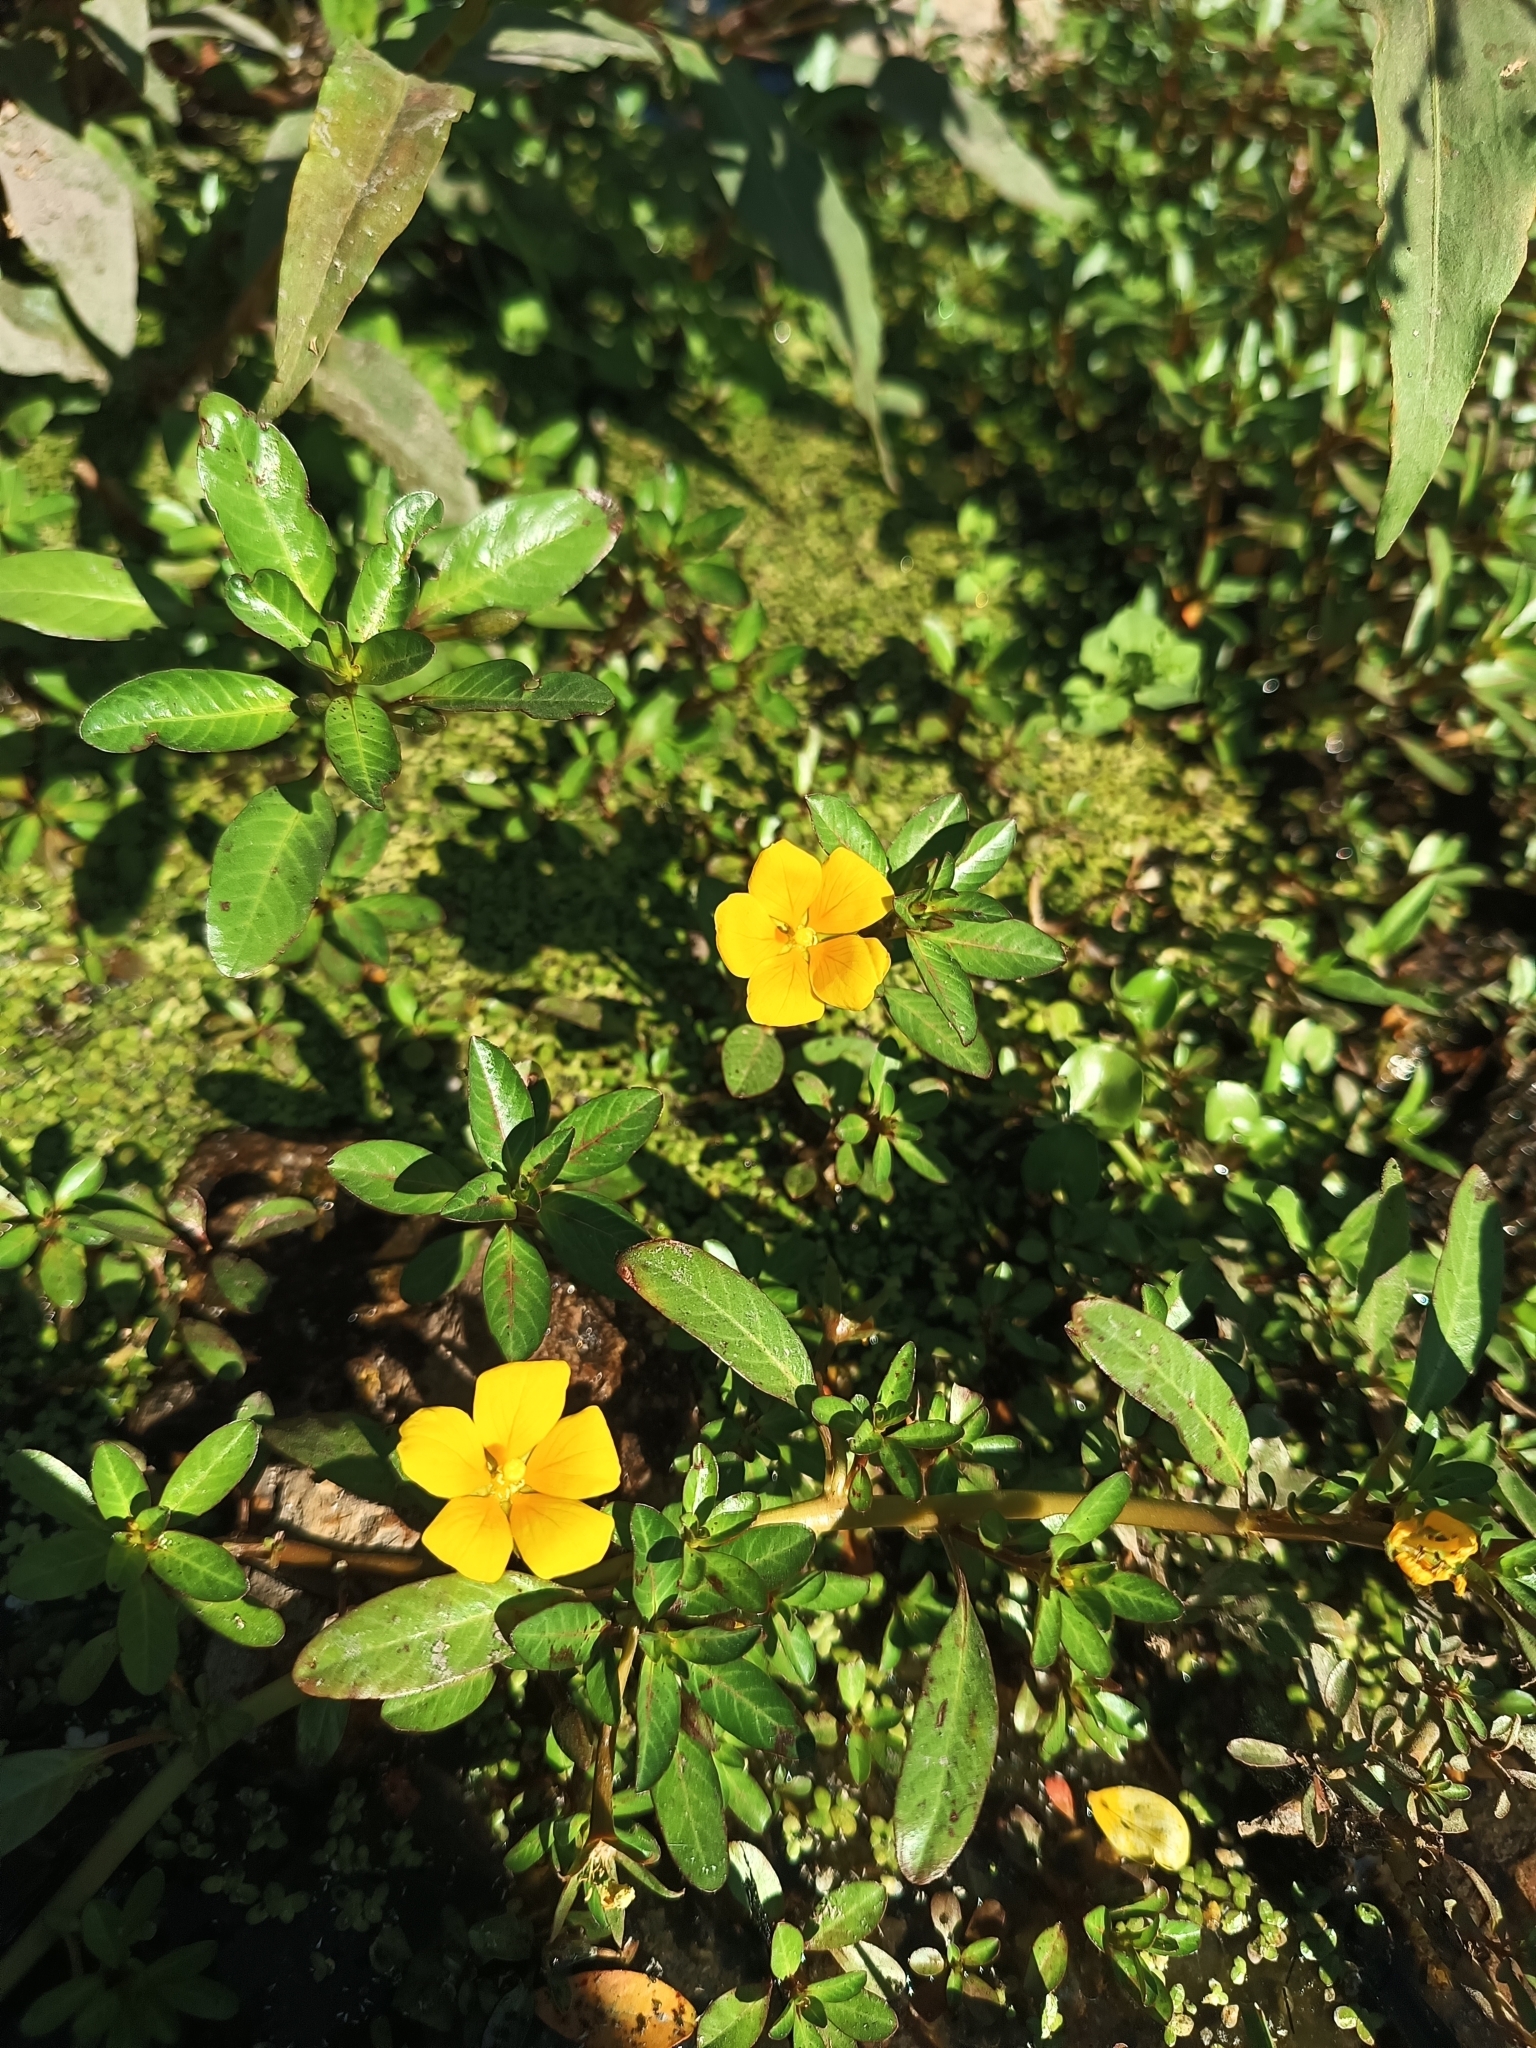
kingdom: Plantae
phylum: Tracheophyta
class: Magnoliopsida
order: Myrtales
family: Onagraceae
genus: Ludwigia
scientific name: Ludwigia peploides
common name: Floating primrose-willow
